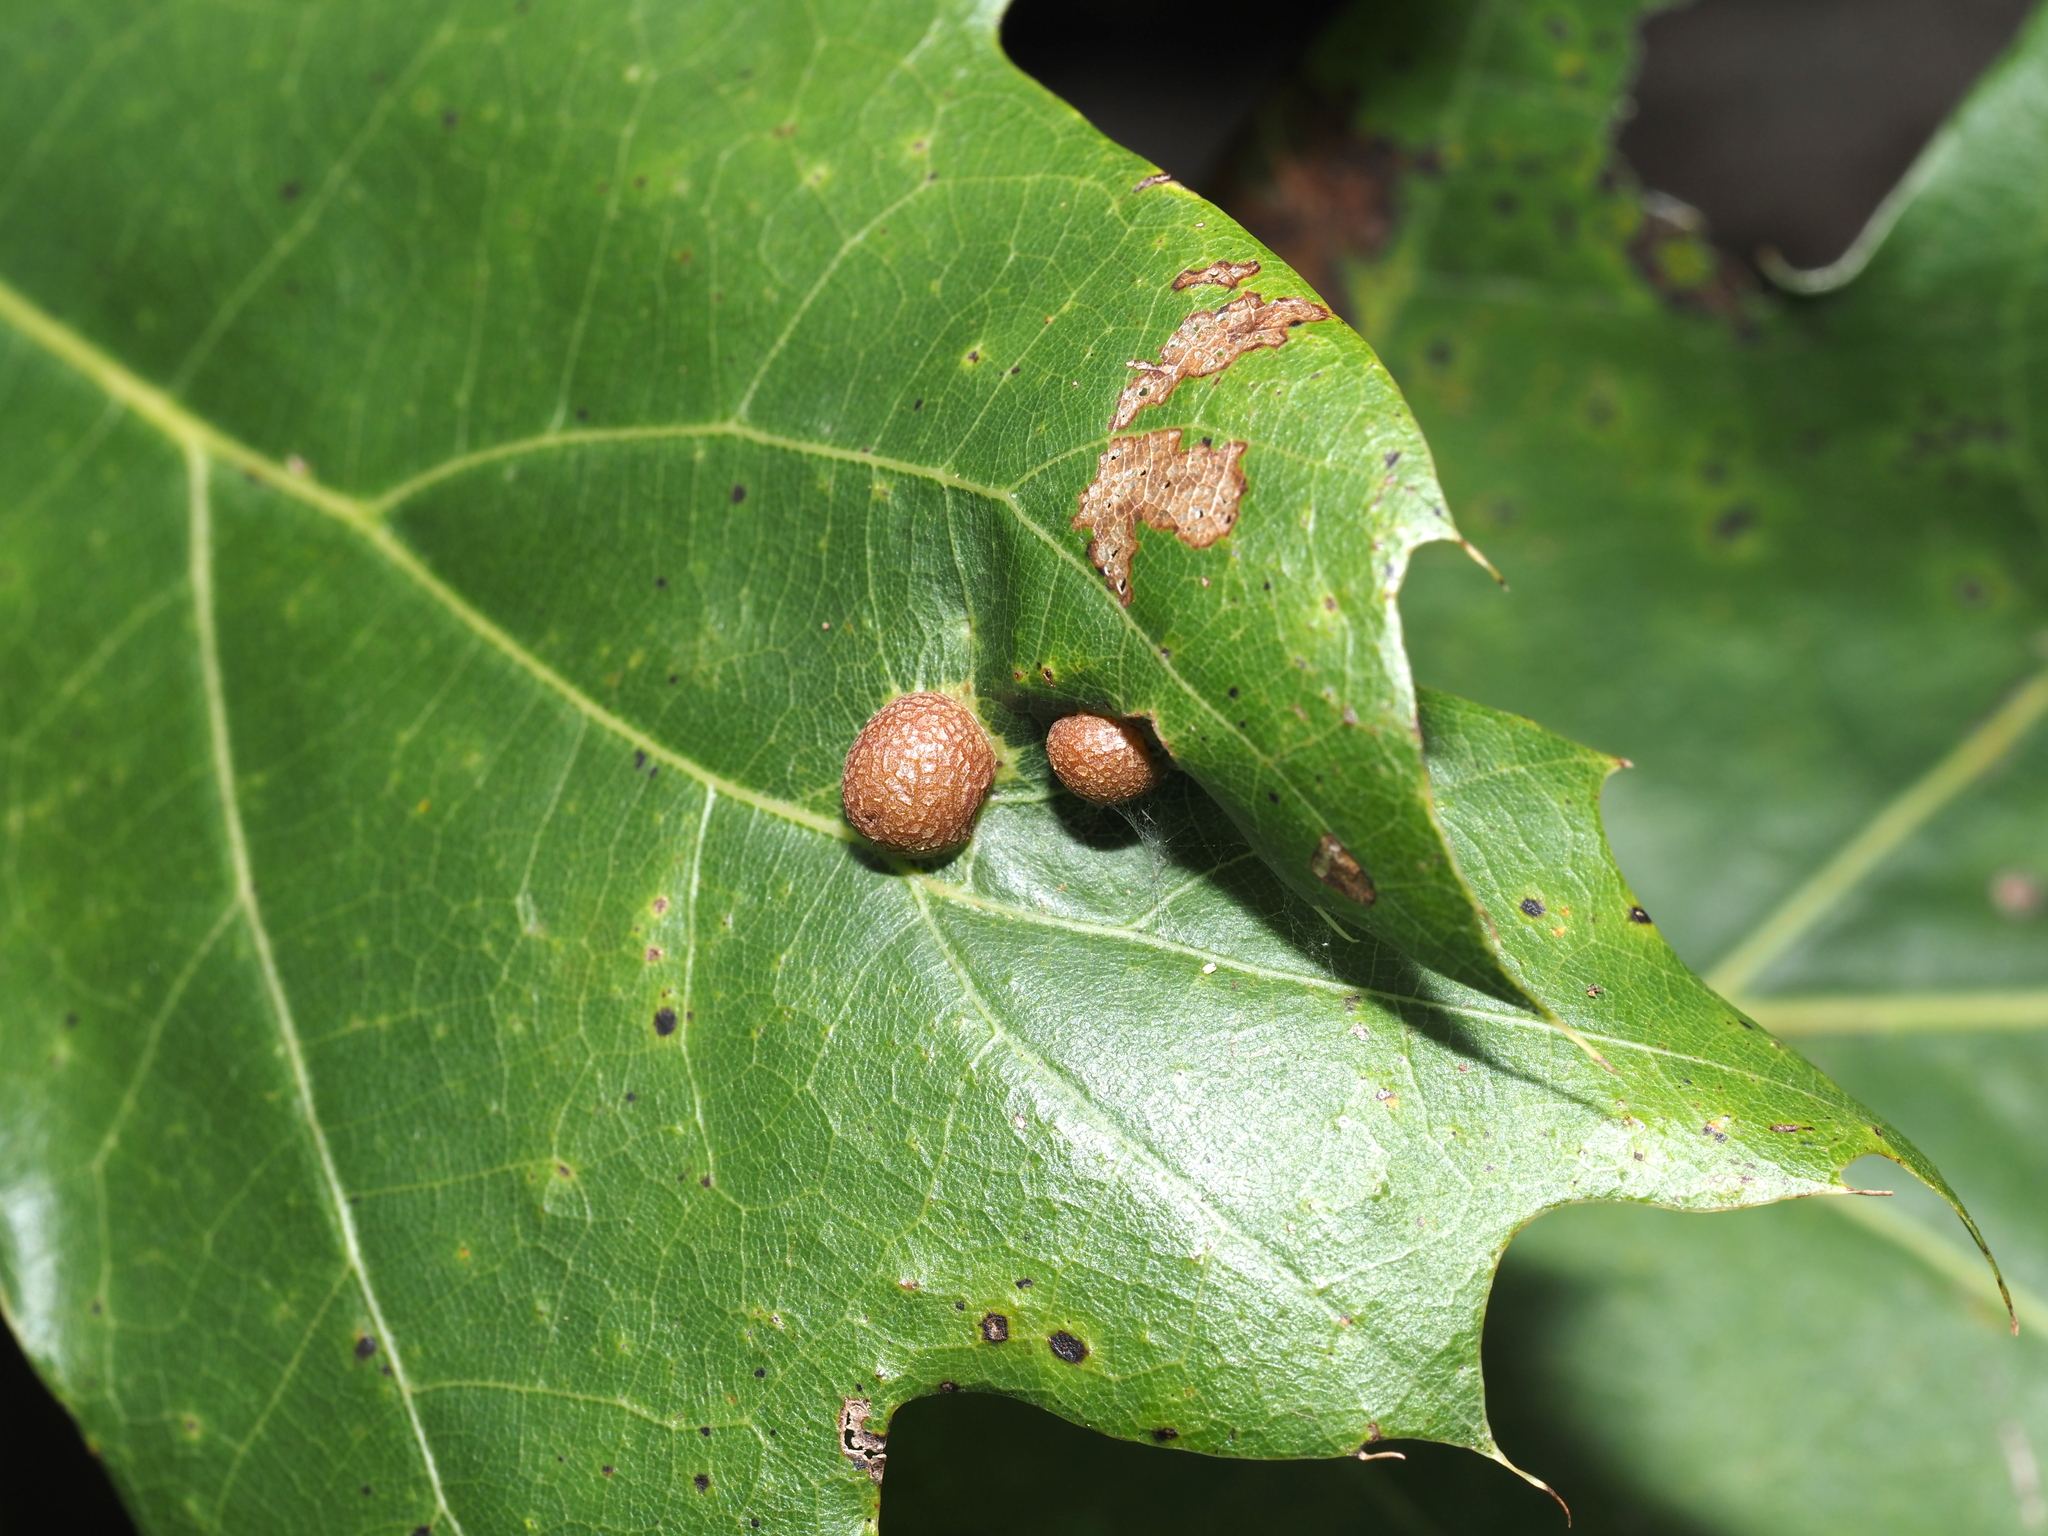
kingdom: Animalia
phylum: Arthropoda
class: Insecta
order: Diptera
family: Cecidomyiidae
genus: Polystepha
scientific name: Polystepha pilulae
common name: Oak leaf gall midge
